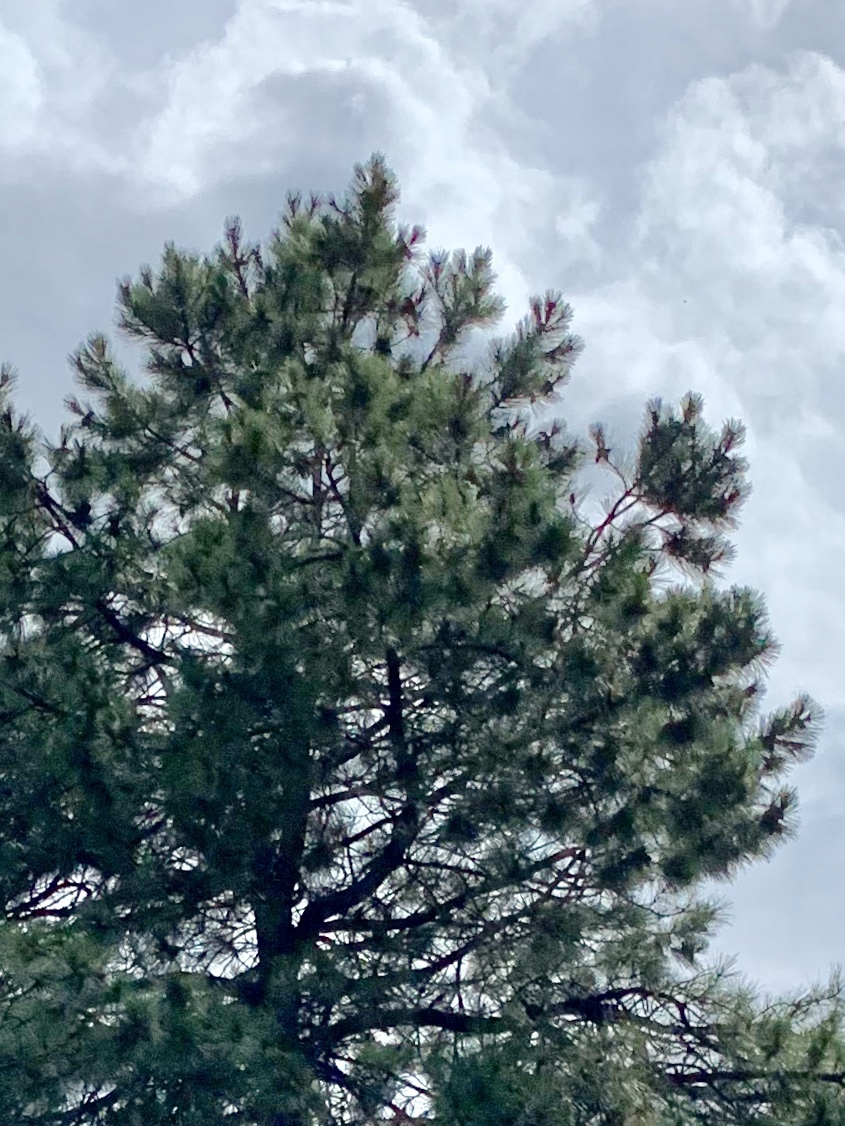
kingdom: Plantae
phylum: Tracheophyta
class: Pinopsida
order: Pinales
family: Pinaceae
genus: Pinus
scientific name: Pinus ponderosa
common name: Western yellow-pine
